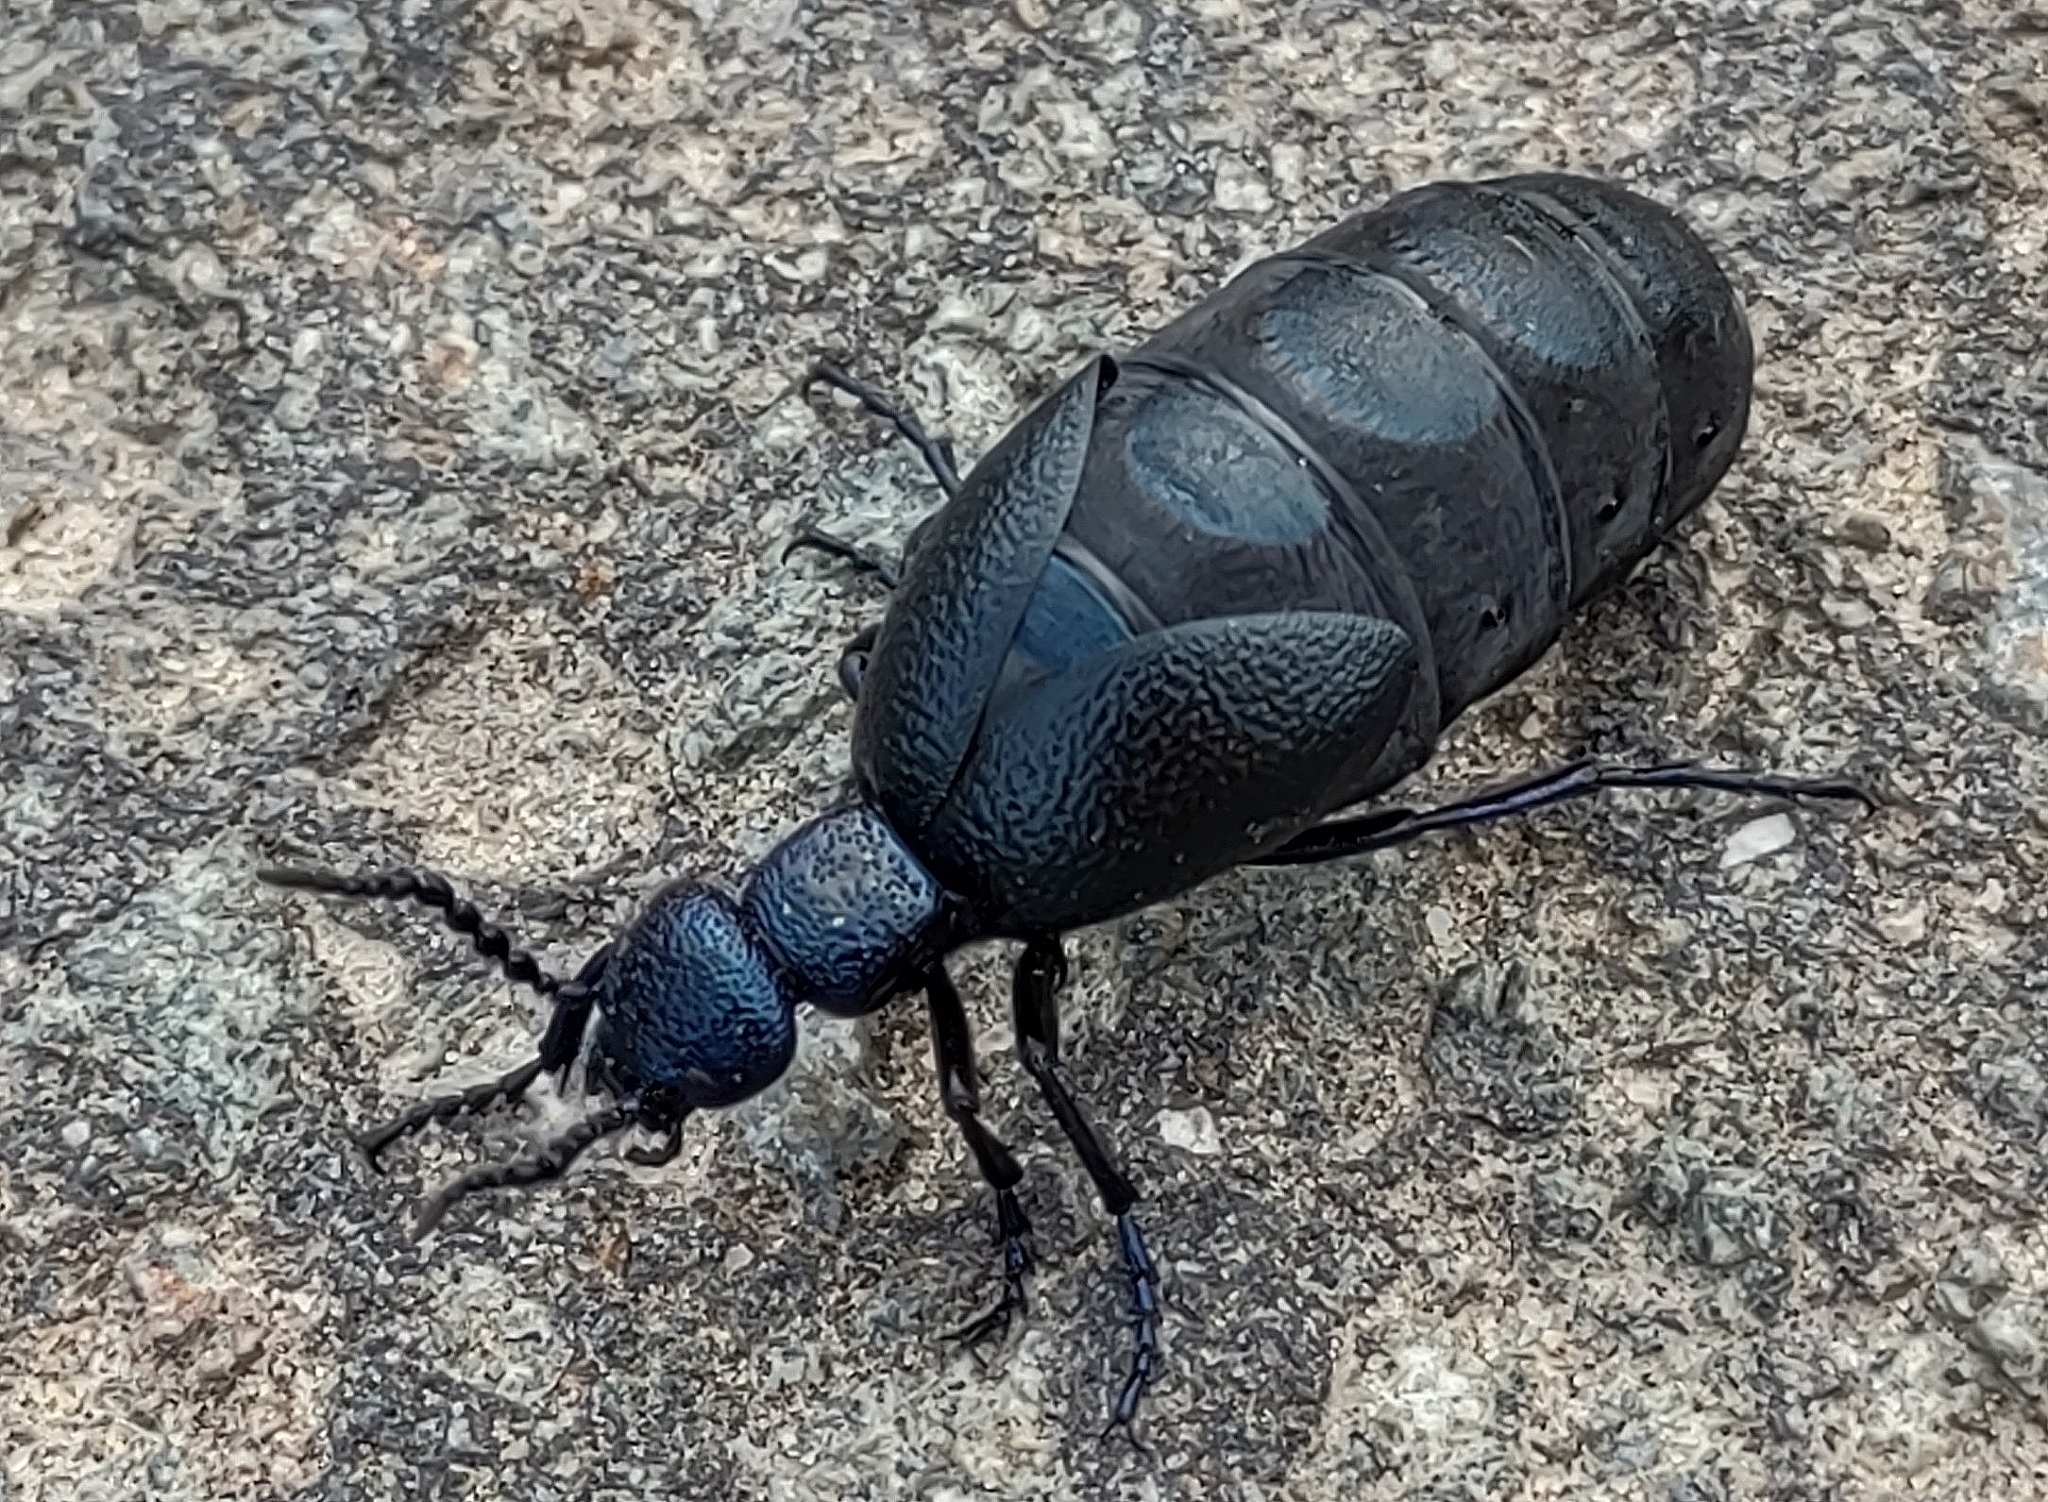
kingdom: Animalia
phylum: Arthropoda
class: Insecta
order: Coleoptera
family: Meloidae
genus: Meloe
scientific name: Meloe proscarabaeus
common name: Black oil-beetle
